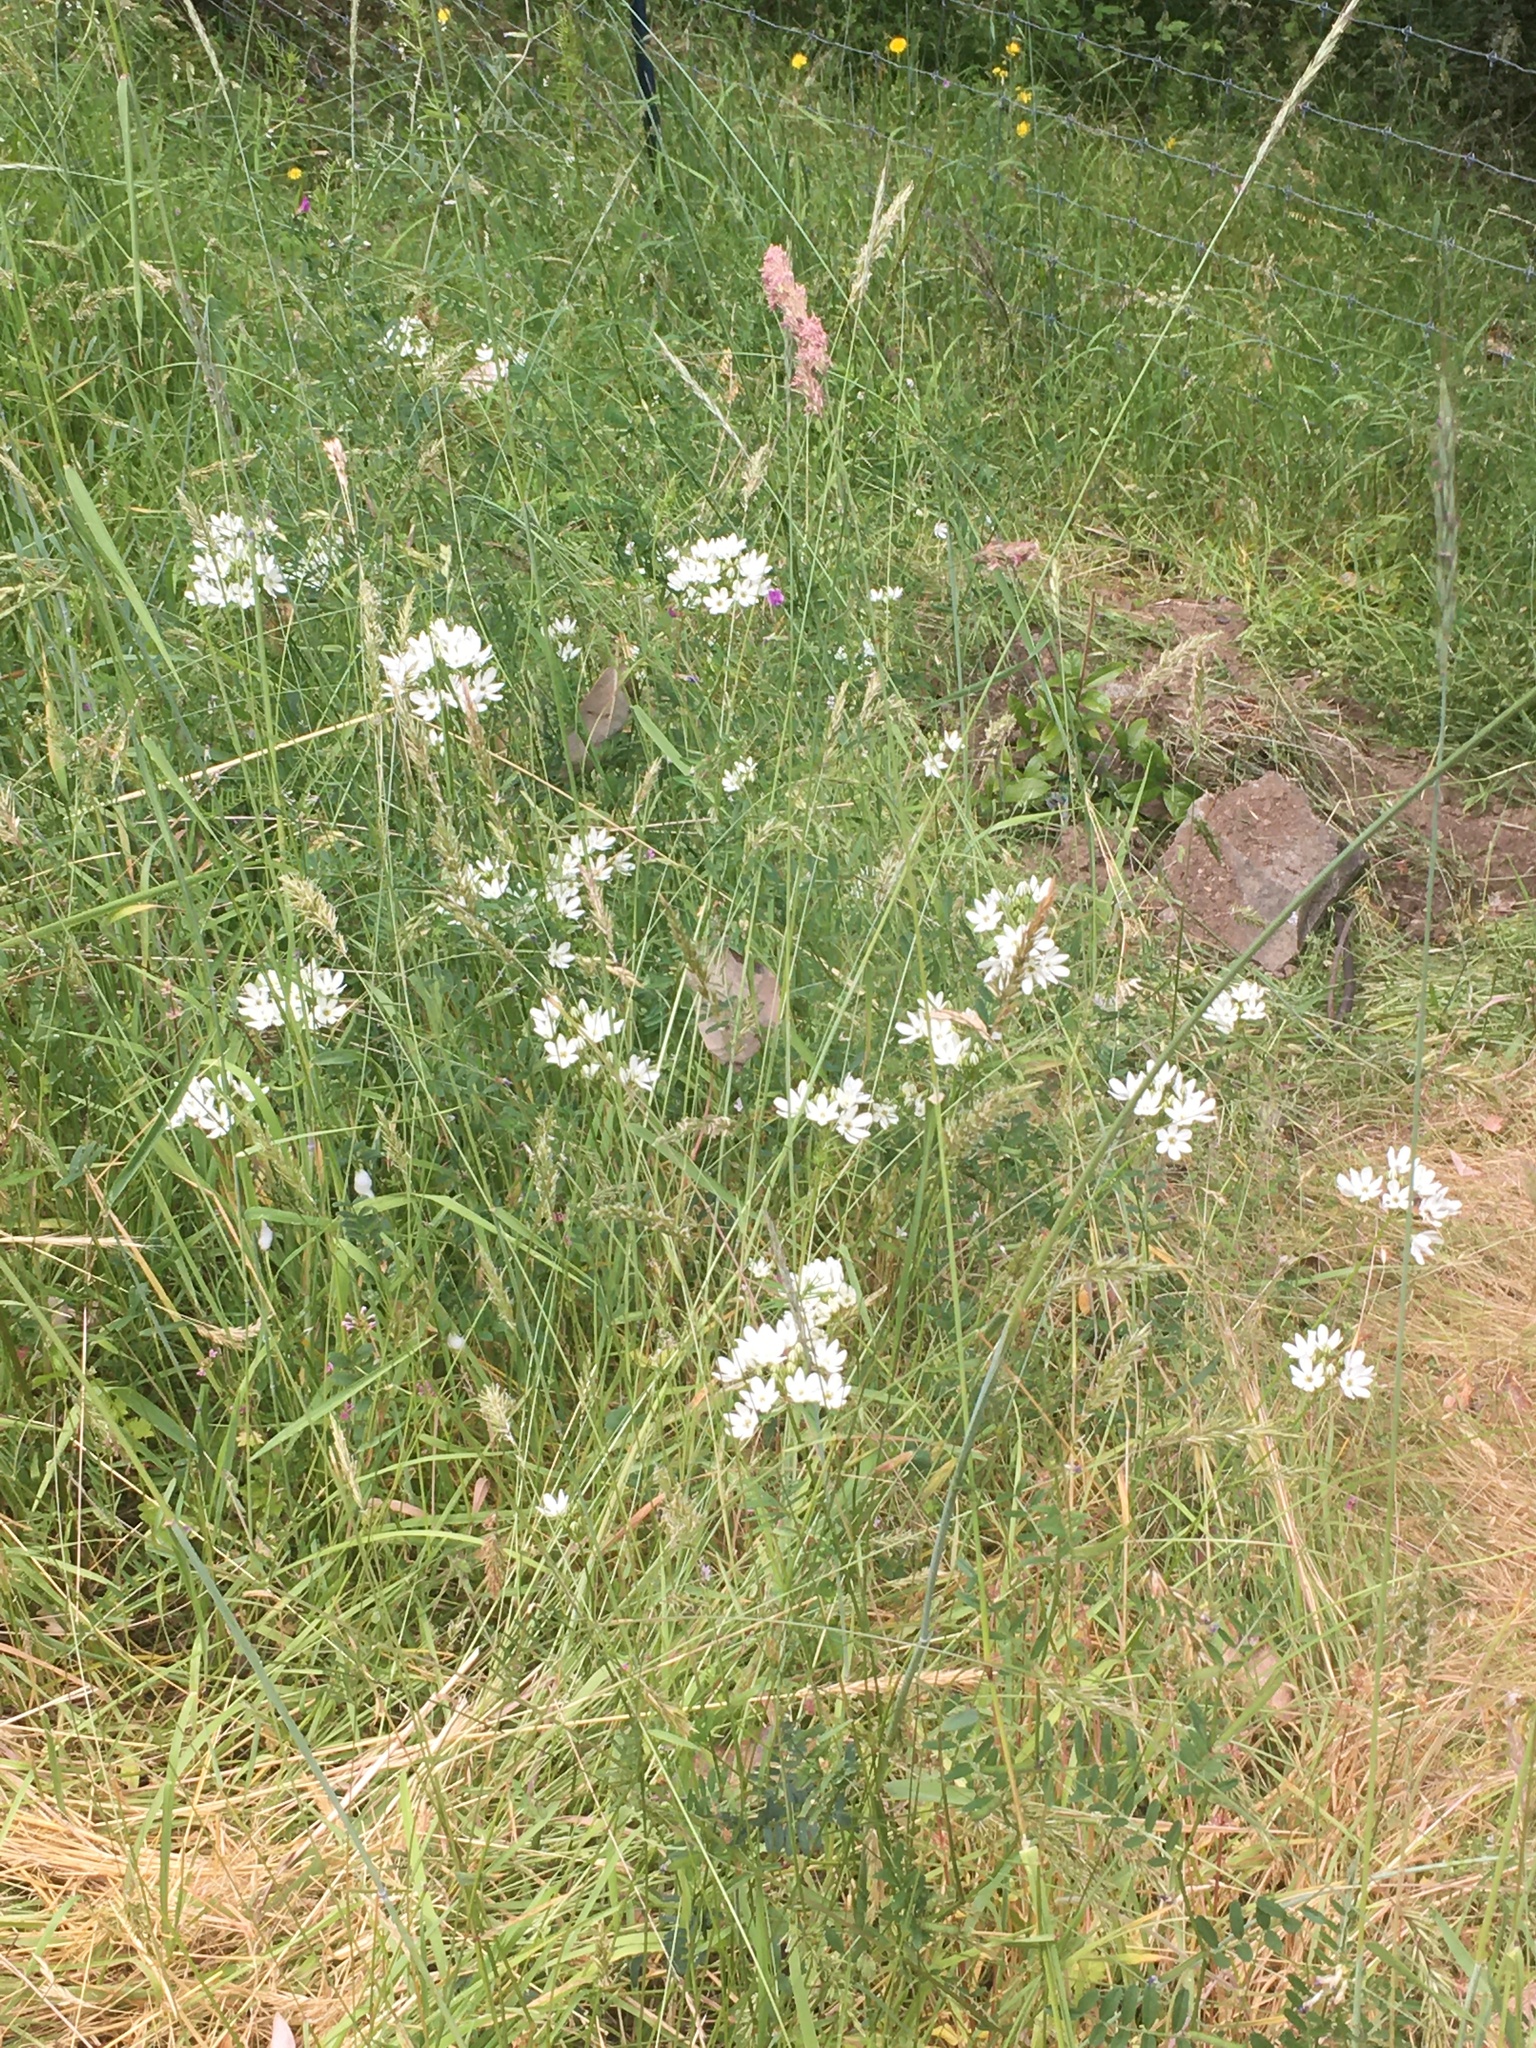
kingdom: Plantae
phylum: Tracheophyta
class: Liliopsida
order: Asparagales
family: Asparagaceae
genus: Triteleia
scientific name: Triteleia hyacinthina
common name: White brodiaea
